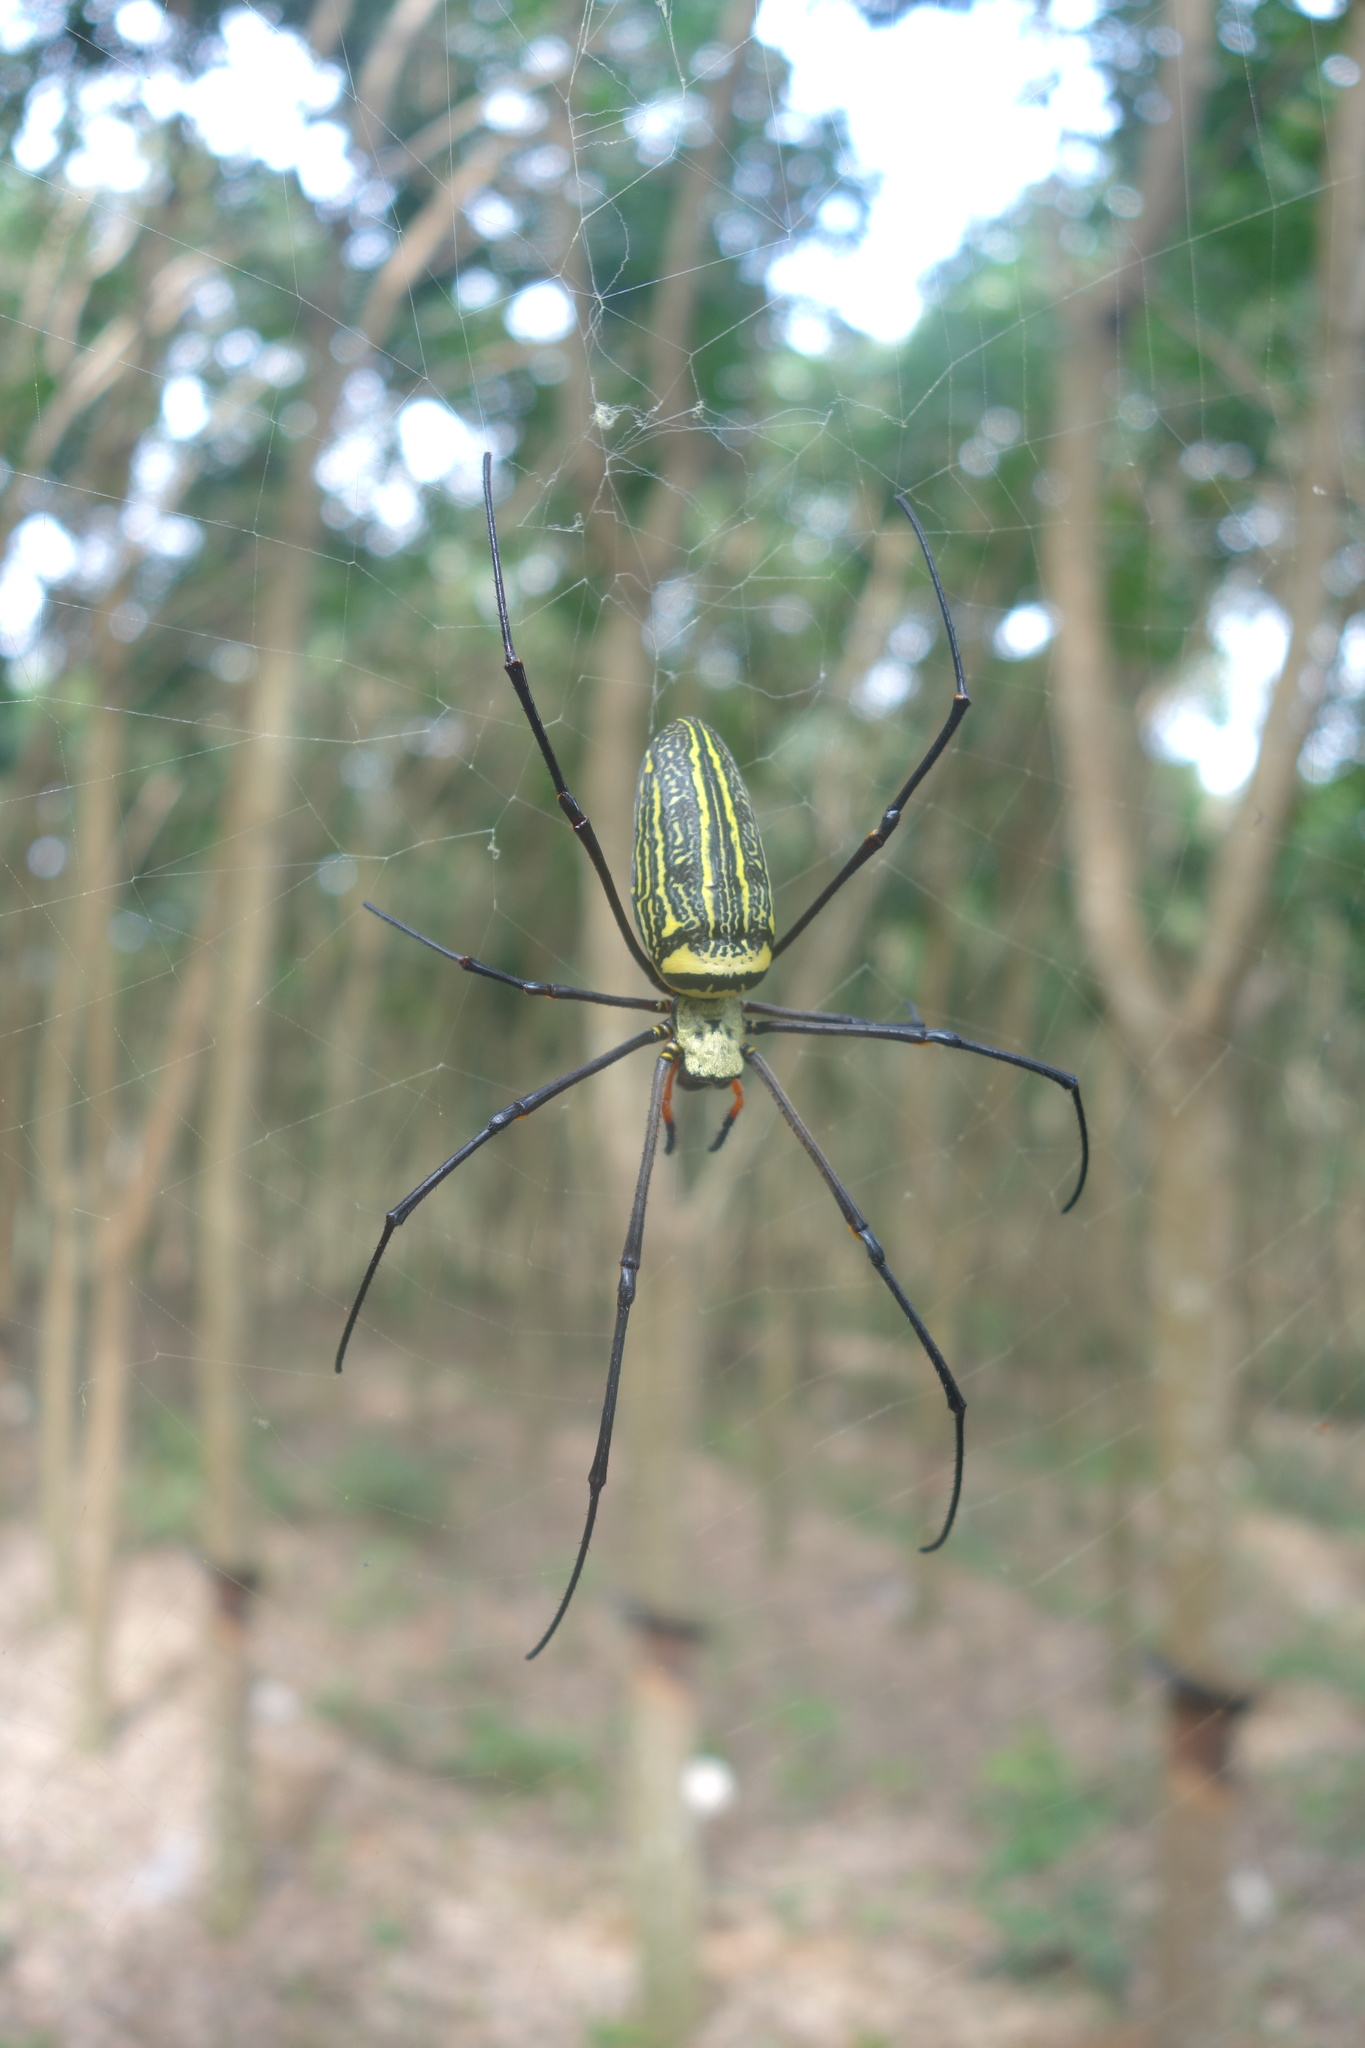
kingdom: Animalia
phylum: Arthropoda
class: Arachnida
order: Araneae
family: Araneidae
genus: Nephila
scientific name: Nephila pilipes
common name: Giant golden orb weaver
